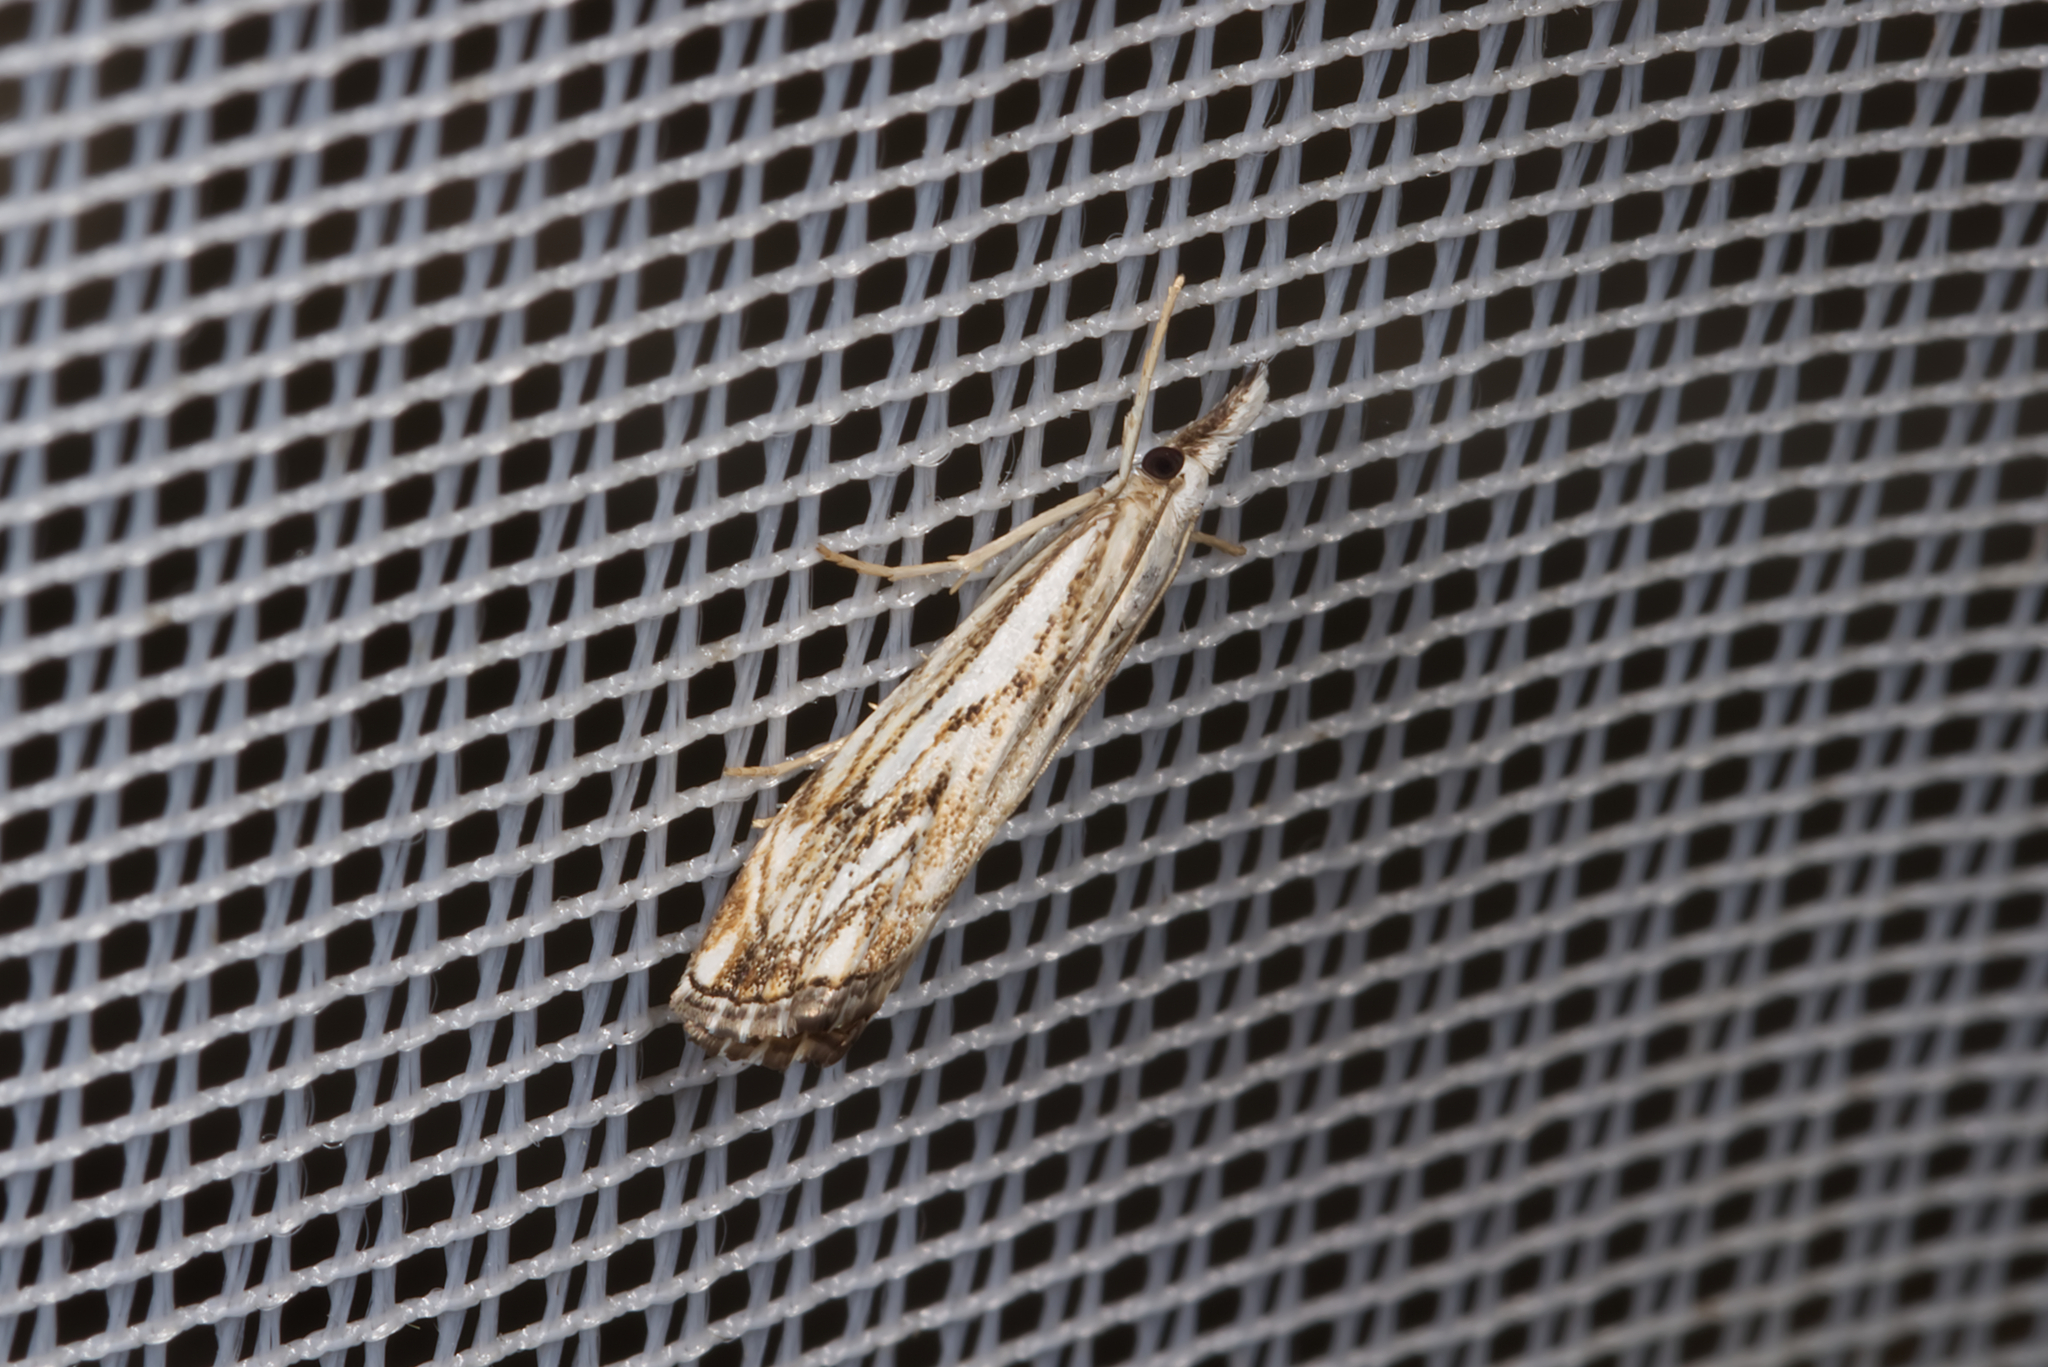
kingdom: Animalia
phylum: Arthropoda
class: Insecta
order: Lepidoptera
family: Crambidae
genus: Catoptria
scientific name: Catoptria falsella
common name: Chequered grass-veneer
